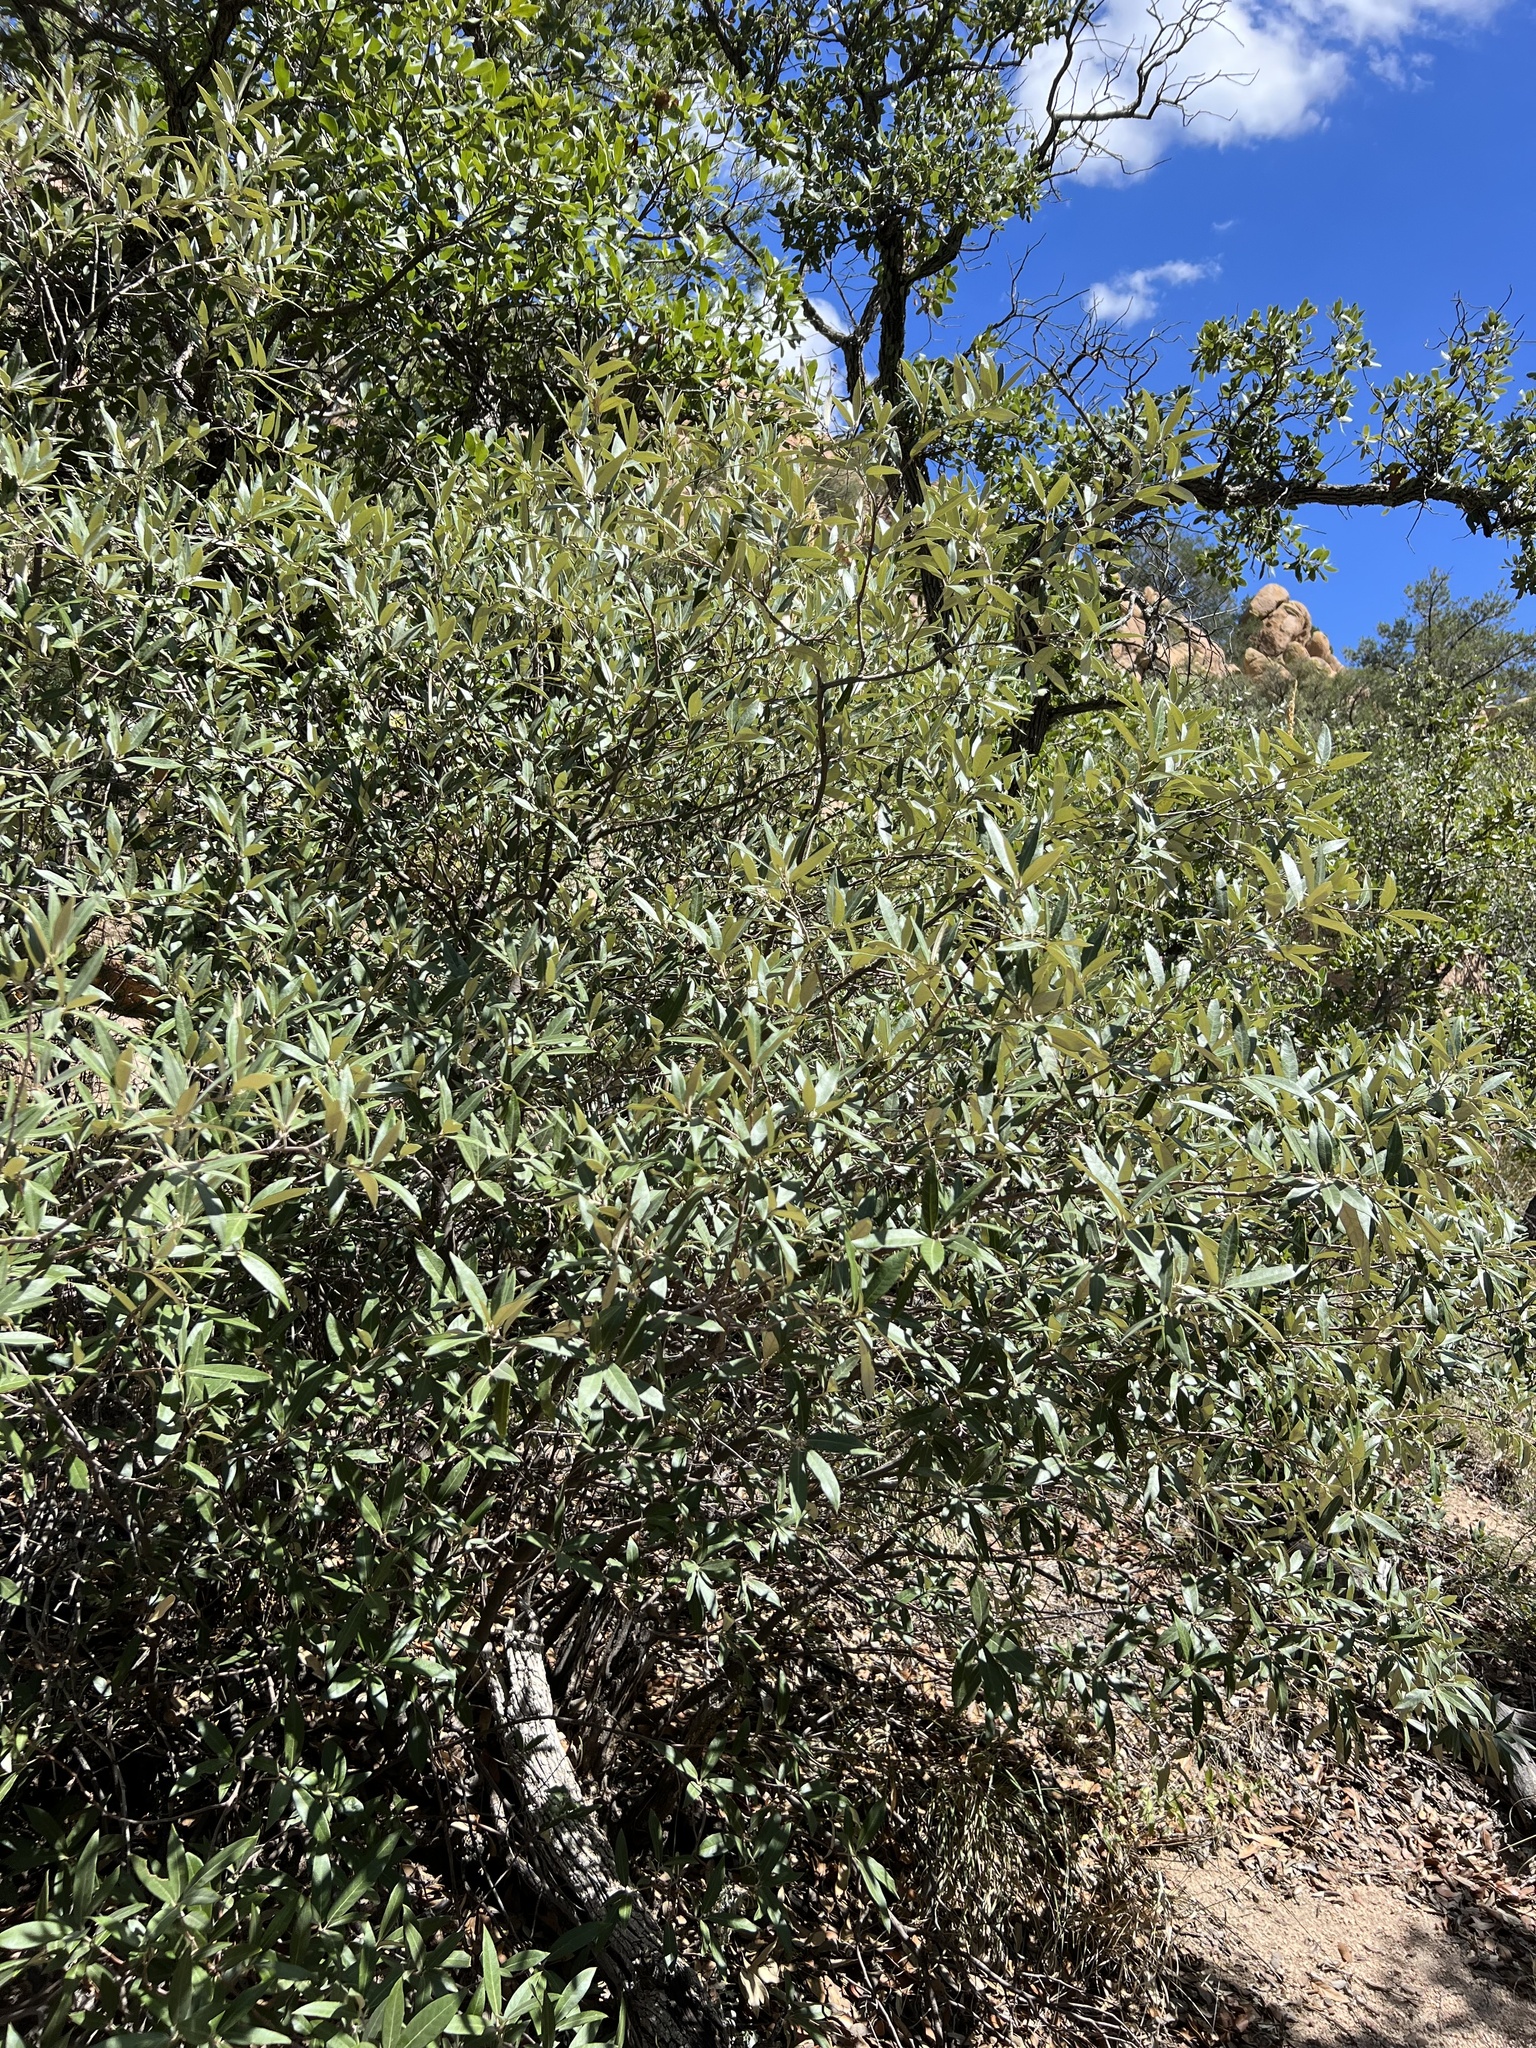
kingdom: Plantae
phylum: Tracheophyta
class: Magnoliopsida
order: Fagales
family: Fagaceae
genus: Quercus
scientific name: Quercus hypoleucoides
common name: Silverleaf oak
